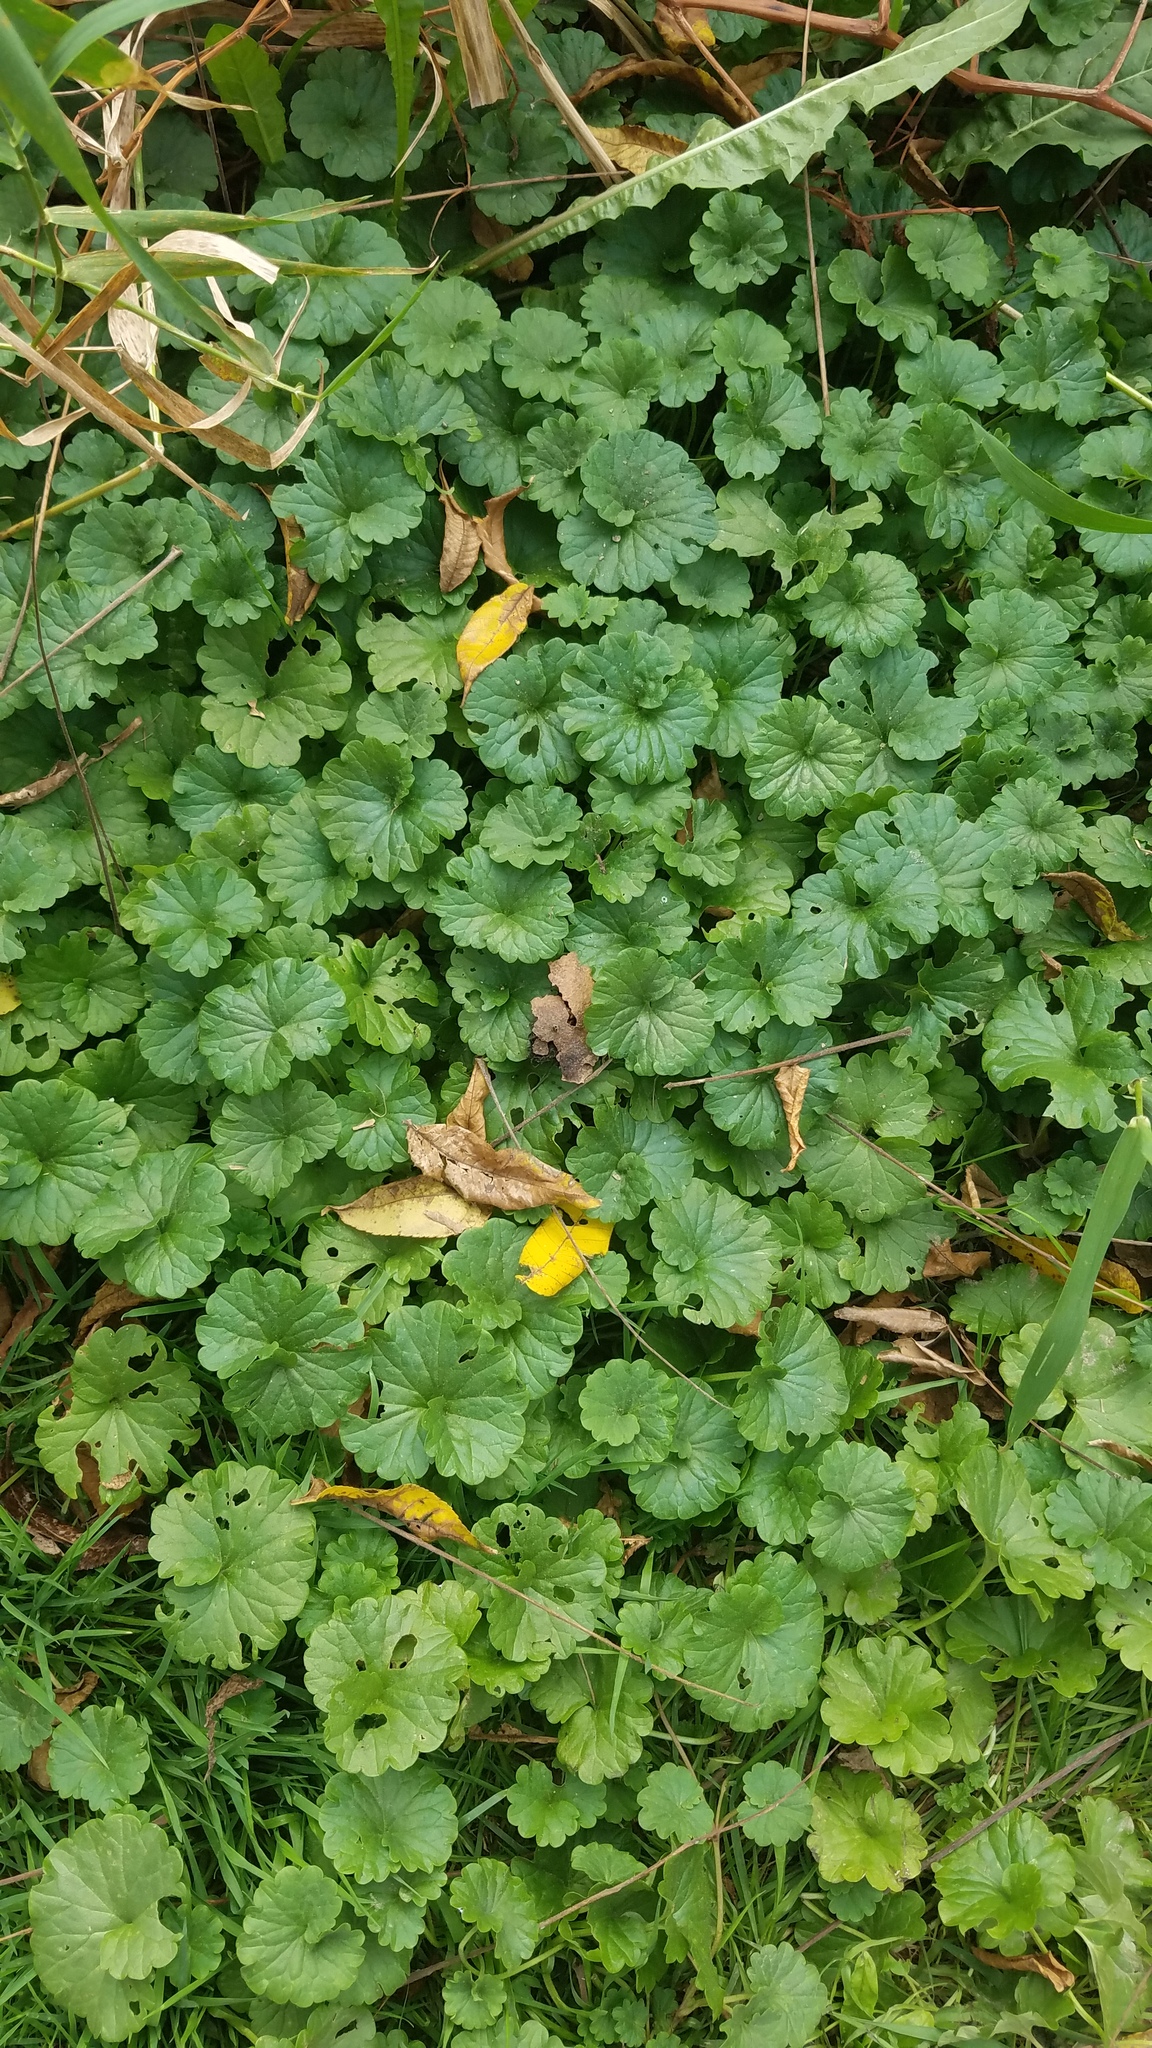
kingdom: Plantae
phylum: Tracheophyta
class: Magnoliopsida
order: Lamiales
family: Lamiaceae
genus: Glechoma
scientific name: Glechoma hederacea
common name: Ground ivy
